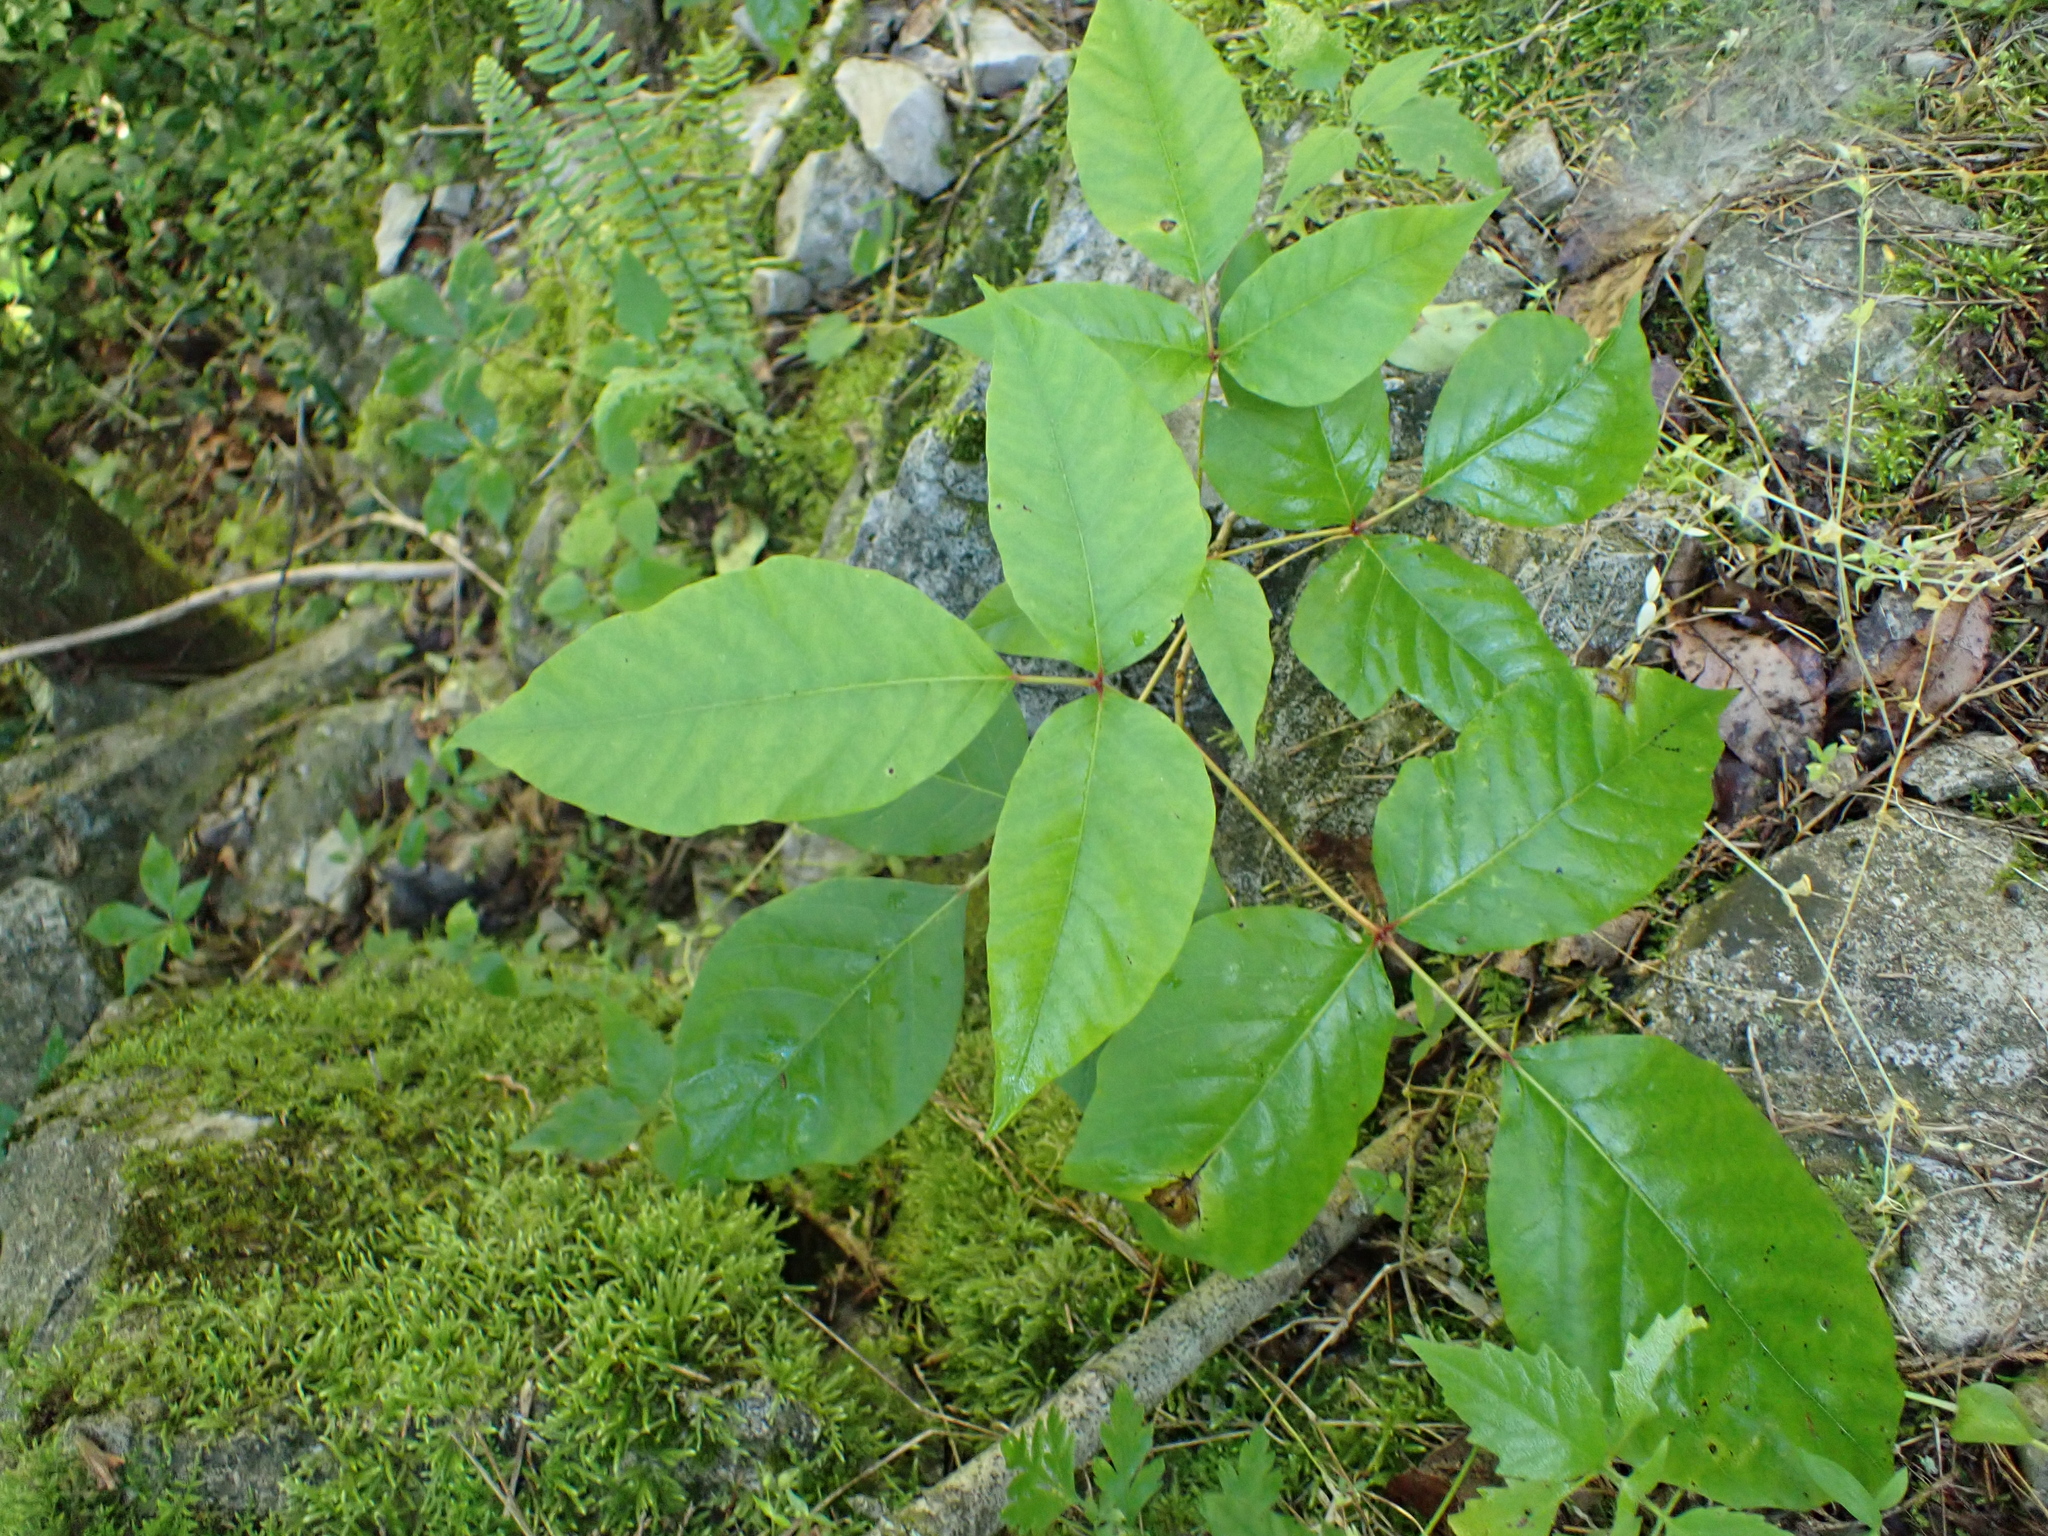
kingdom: Plantae
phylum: Tracheophyta
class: Magnoliopsida
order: Sapindales
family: Anacardiaceae
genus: Toxicodendron
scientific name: Toxicodendron radicans
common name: Poison ivy
